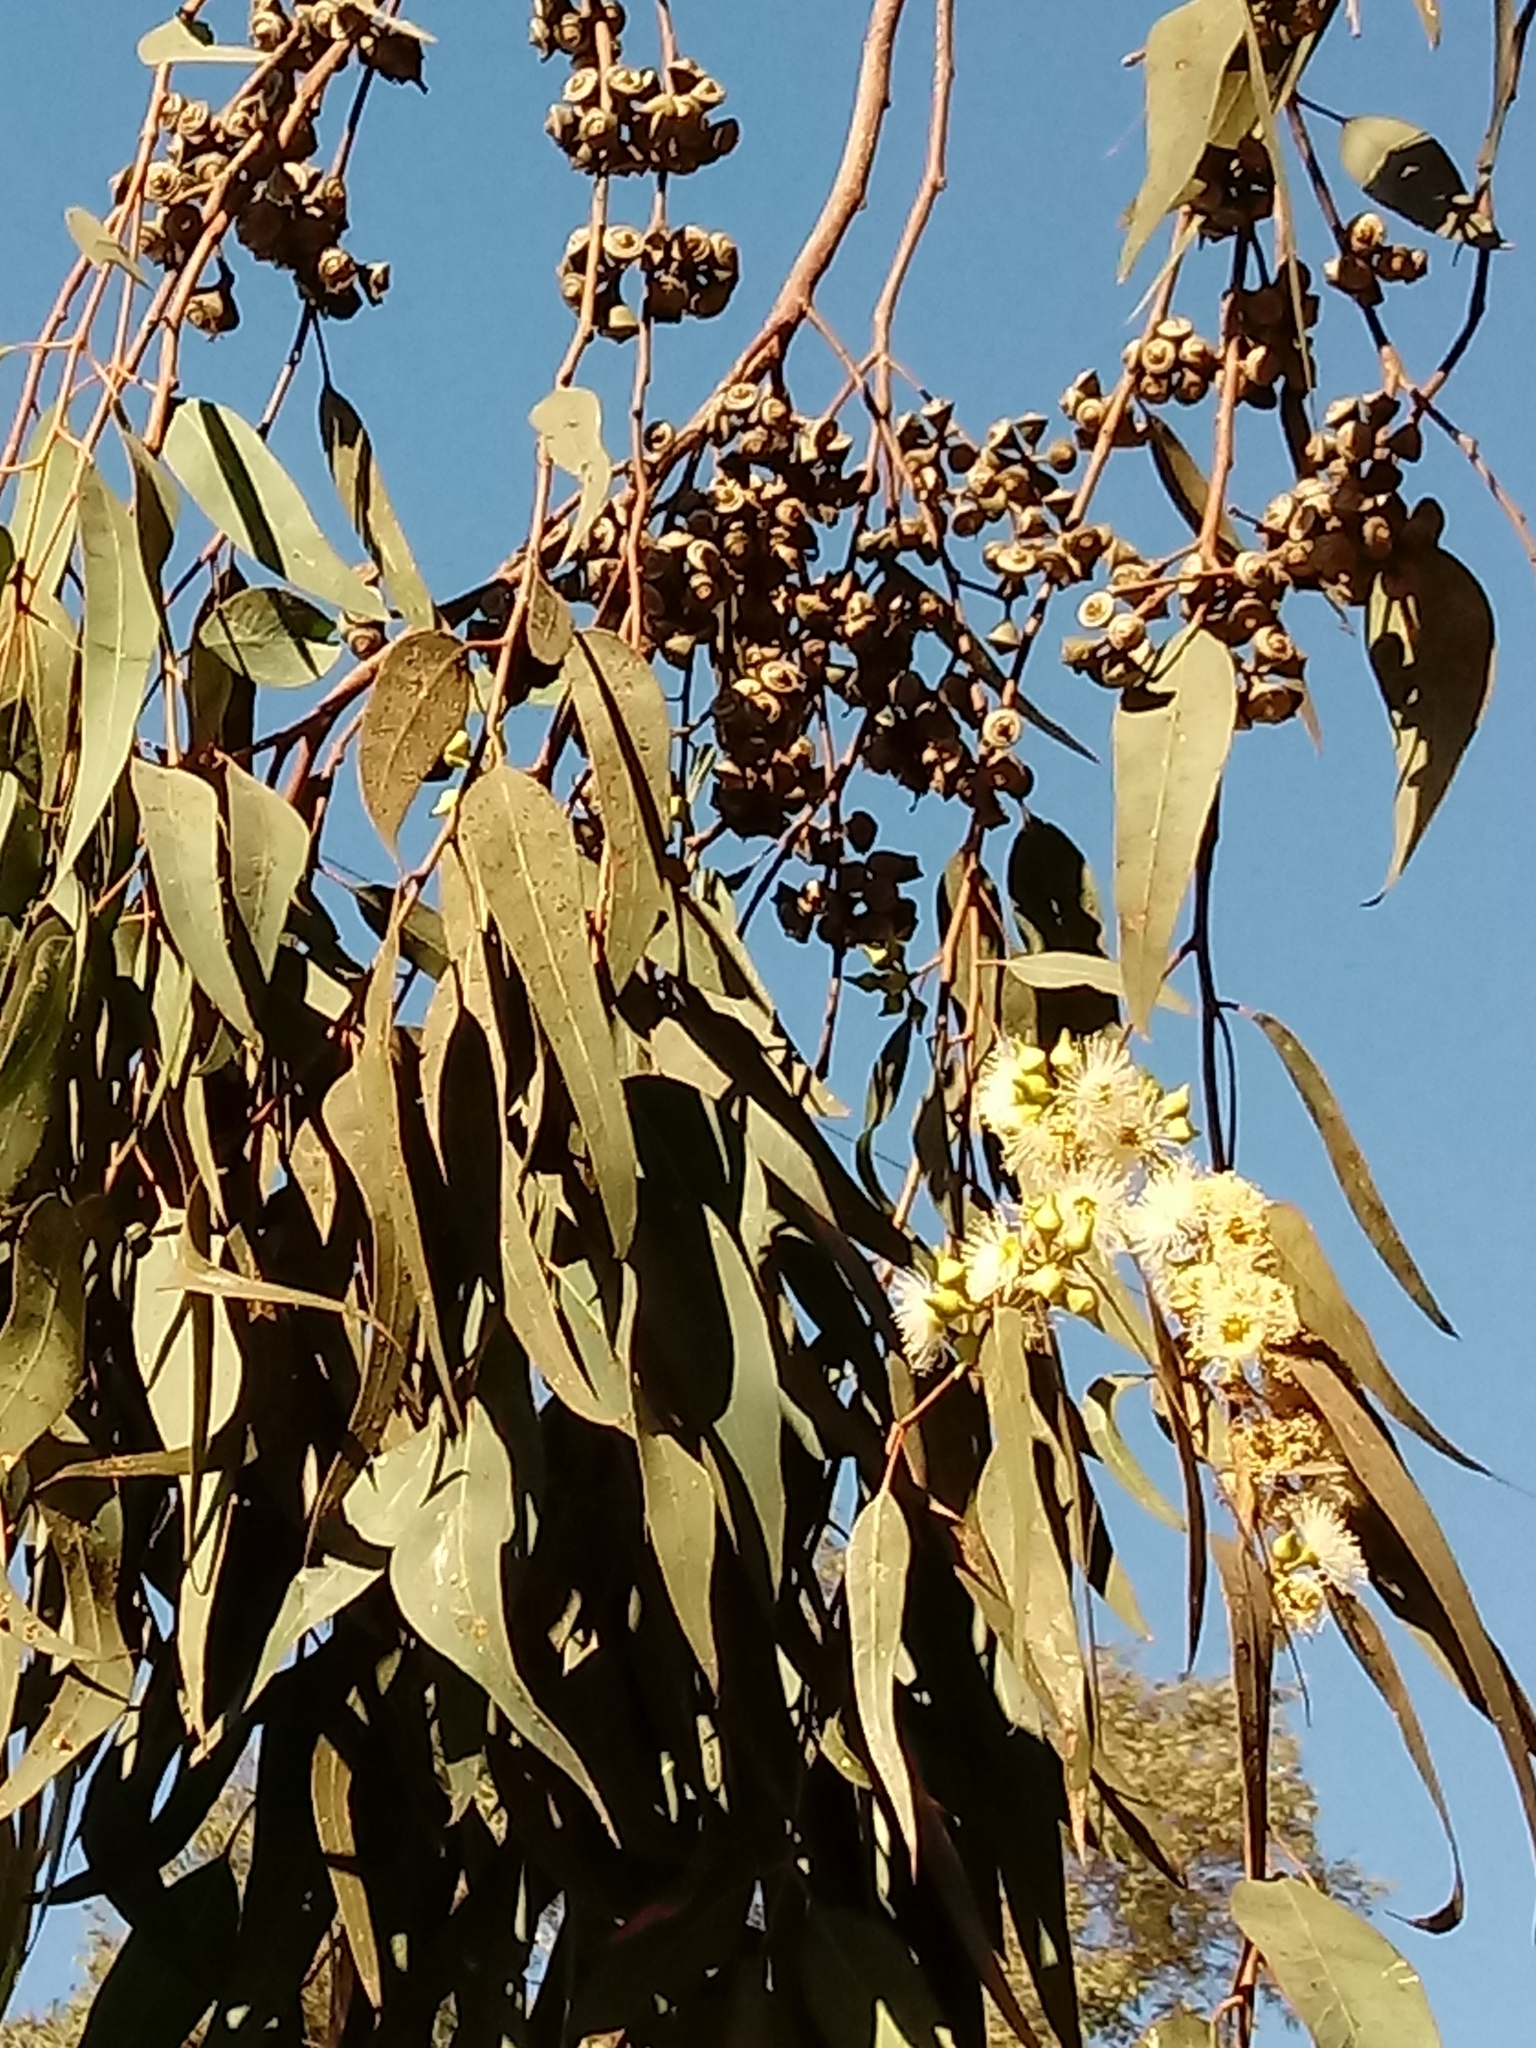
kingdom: Plantae
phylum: Tracheophyta
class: Magnoliopsida
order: Myrtales
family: Myrtaceae
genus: Eucalyptus
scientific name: Eucalyptus camaldulensis
